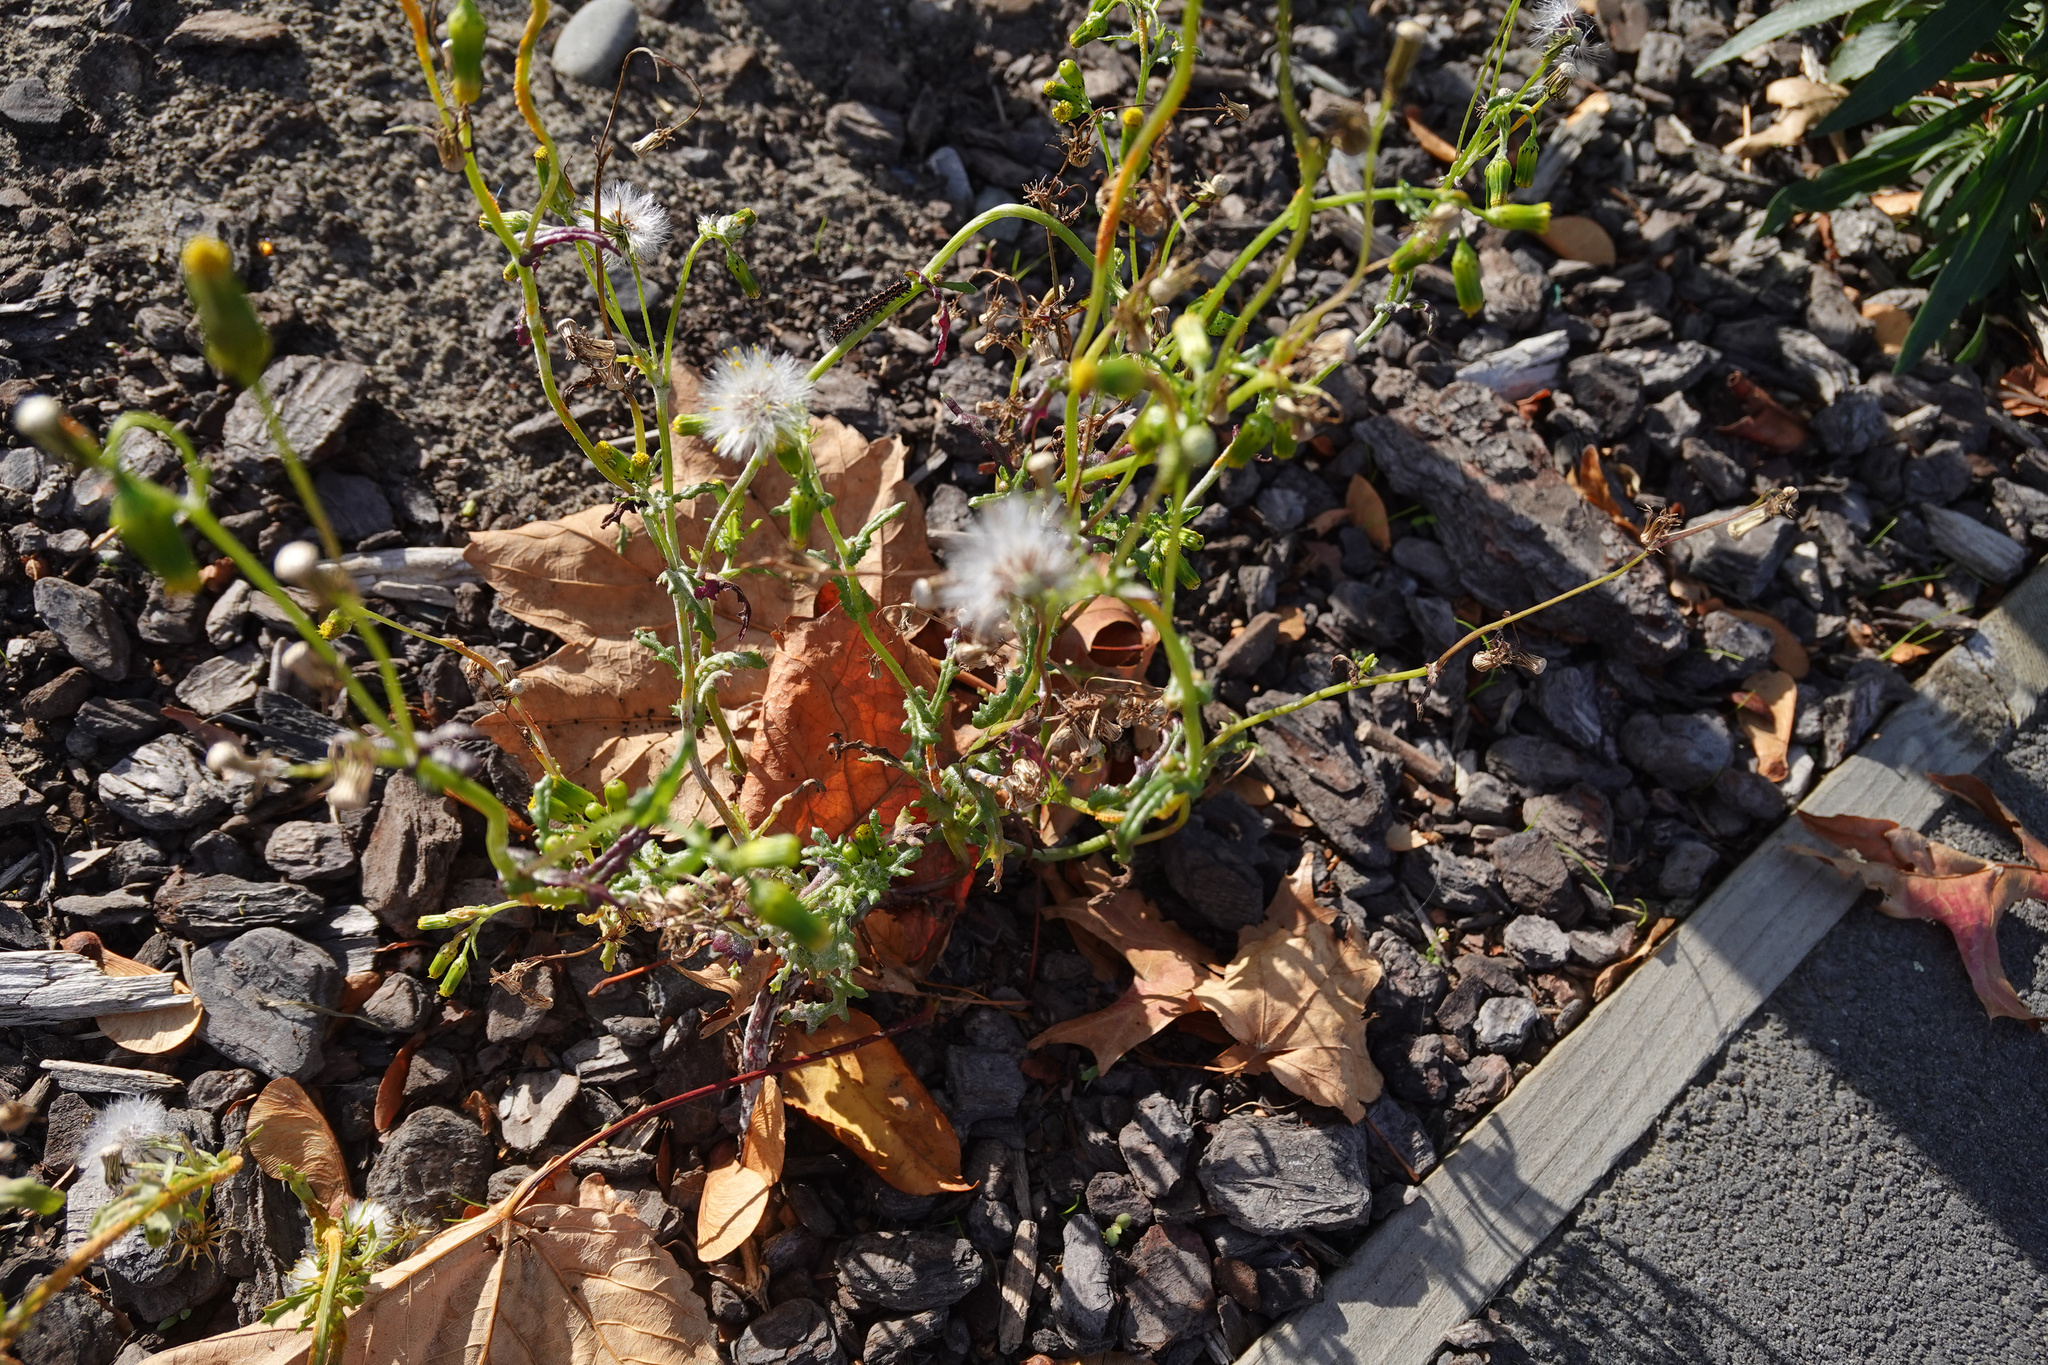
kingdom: Plantae
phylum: Tracheophyta
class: Magnoliopsida
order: Asterales
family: Asteraceae
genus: Senecio
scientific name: Senecio vulgaris
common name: Old-man-in-the-spring
